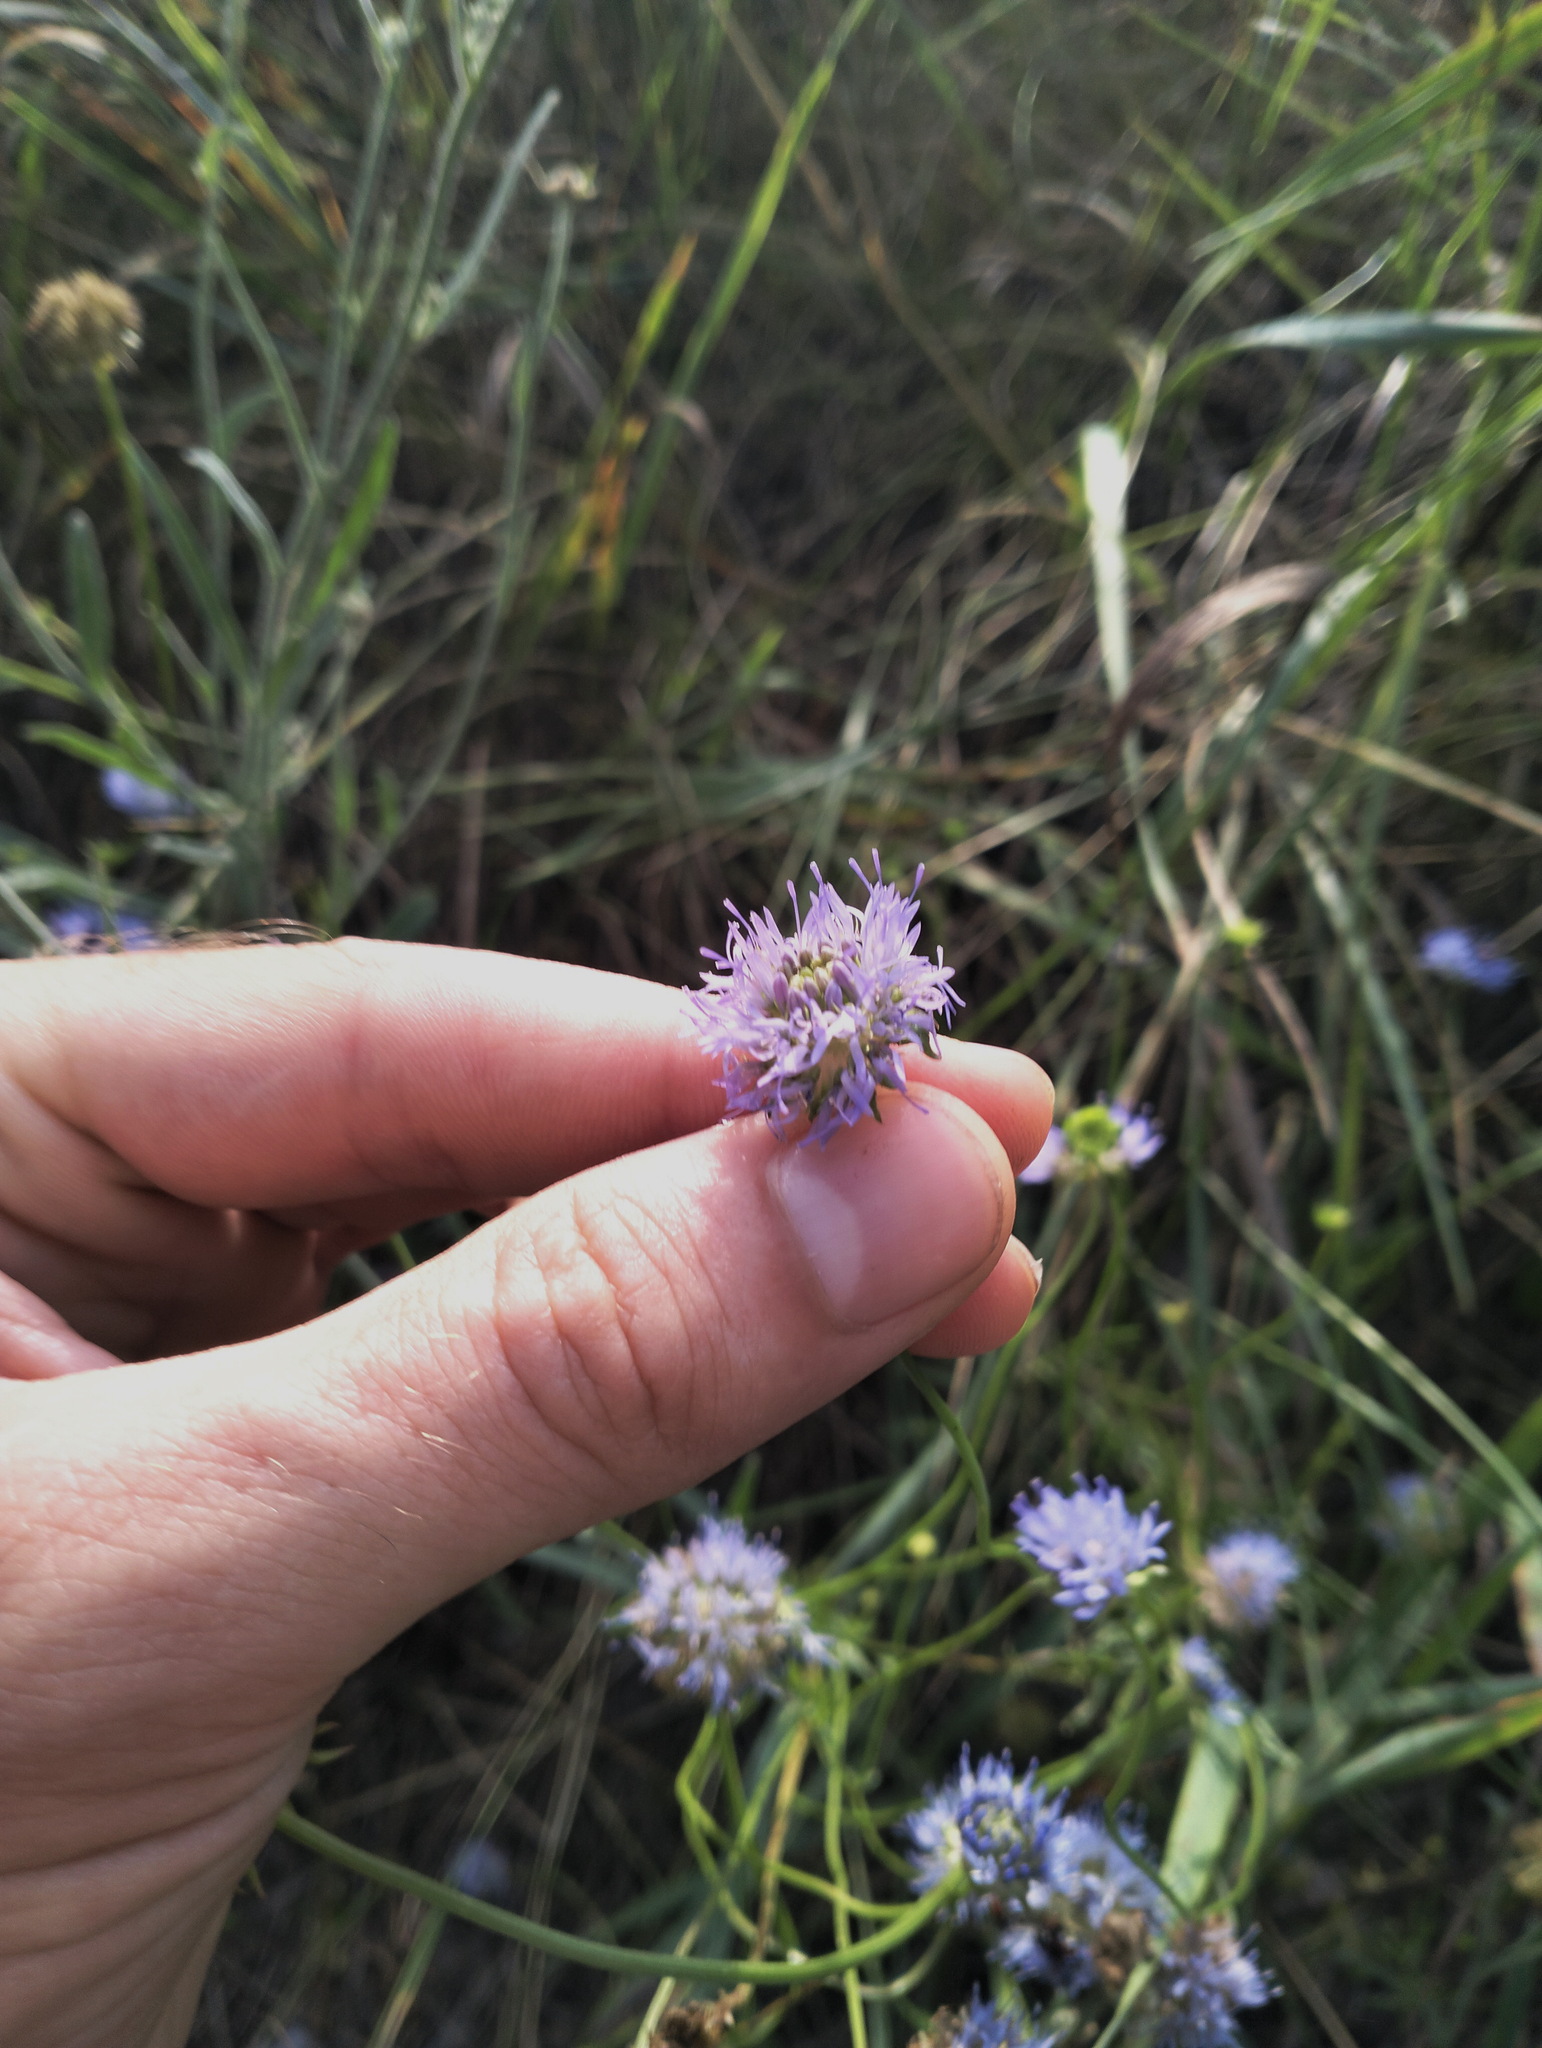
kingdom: Plantae
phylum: Tracheophyta
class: Magnoliopsida
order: Asterales
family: Campanulaceae
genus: Jasione
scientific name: Jasione montana
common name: Sheep's-bit
